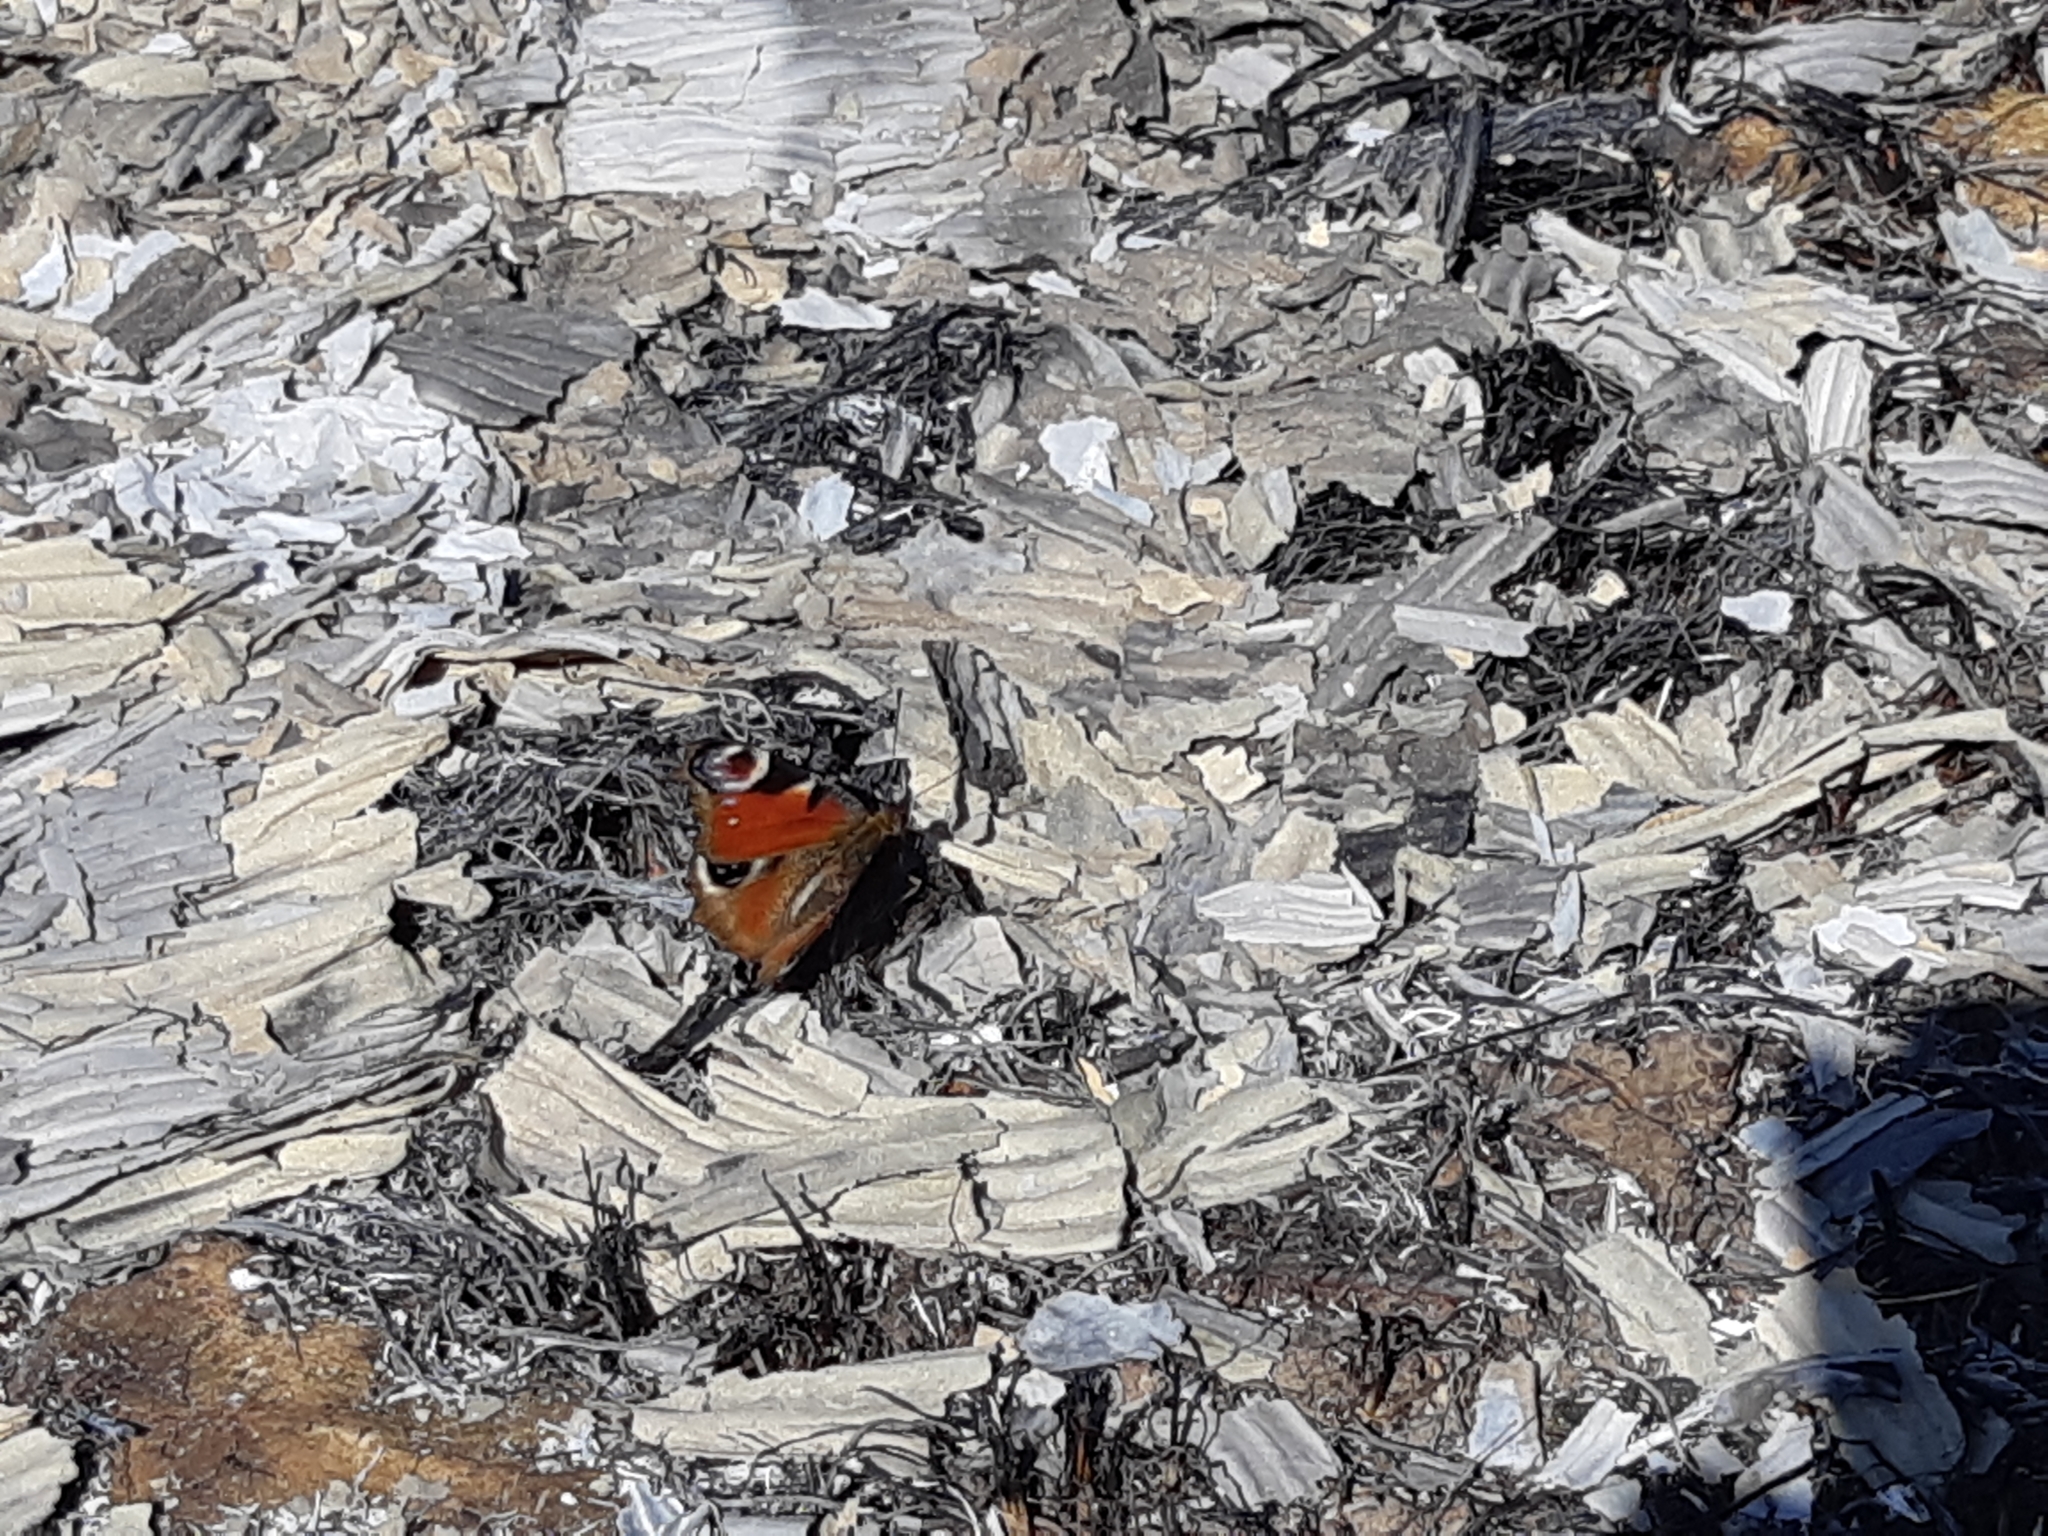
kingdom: Animalia
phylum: Arthropoda
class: Insecta
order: Lepidoptera
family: Nymphalidae
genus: Aglais
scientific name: Aglais io
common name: Peacock
